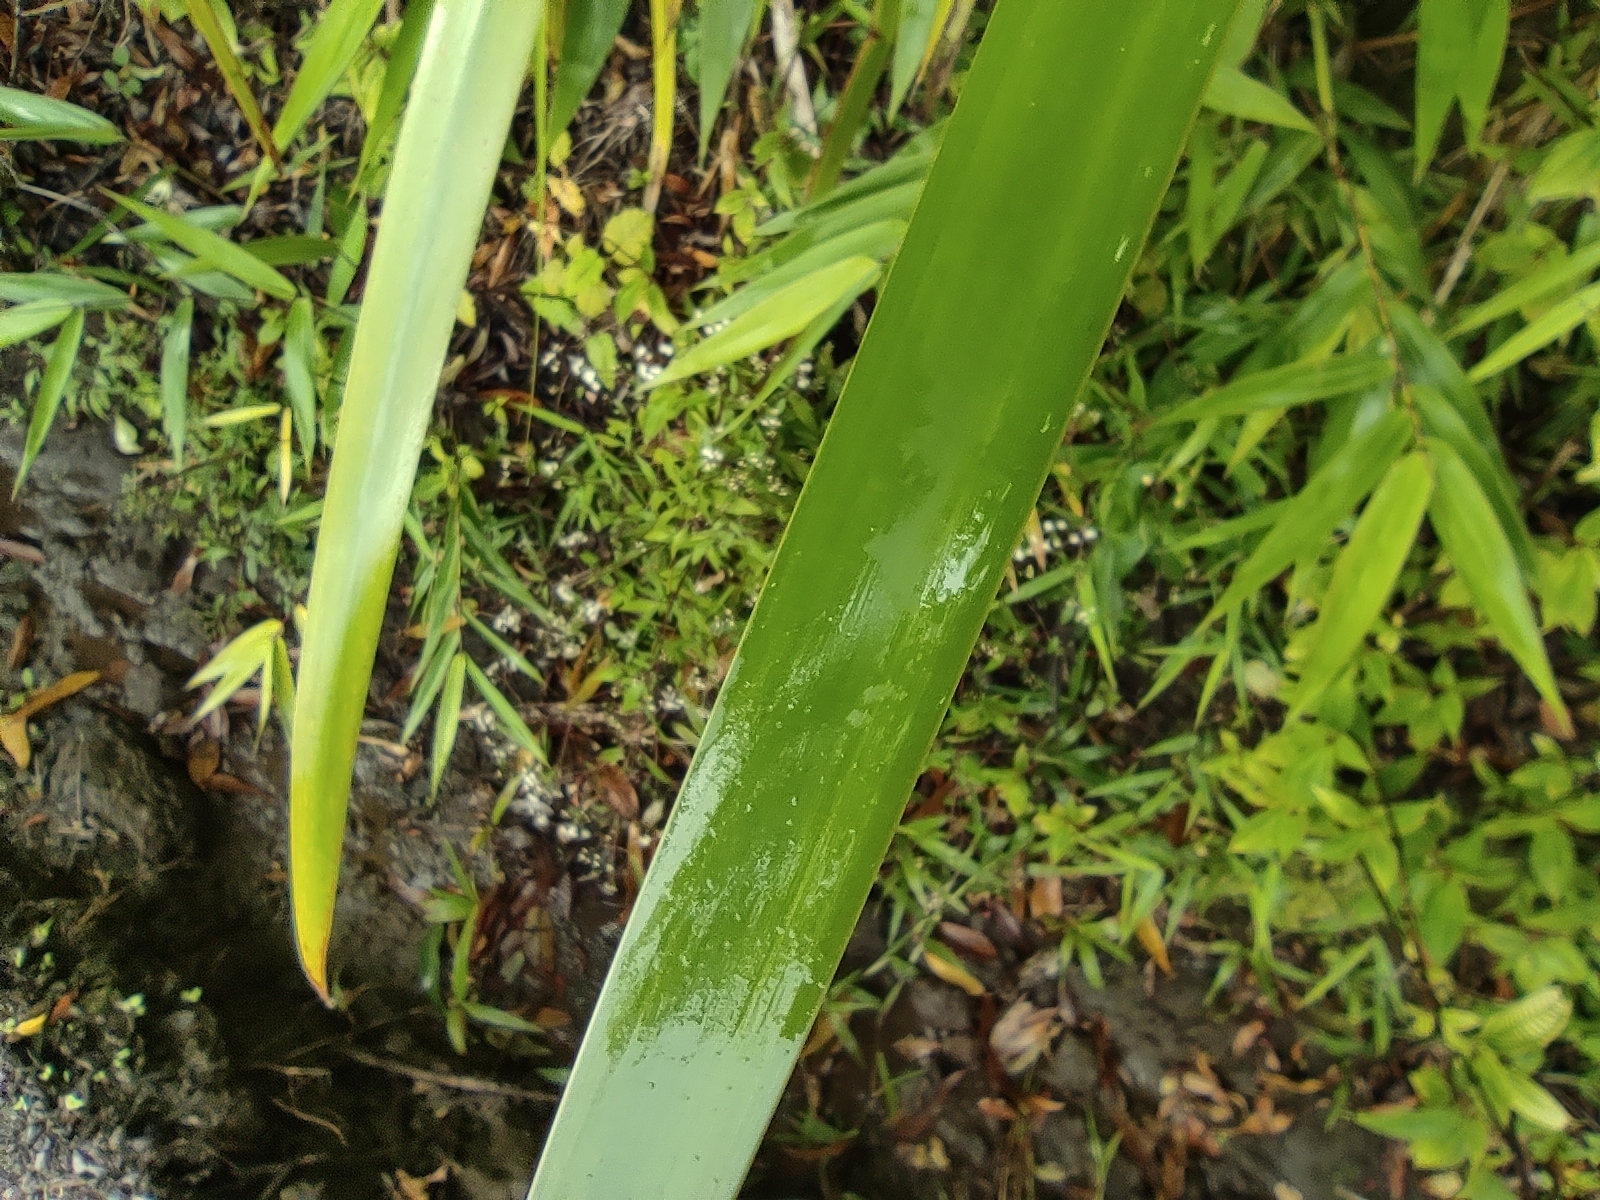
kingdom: Plantae
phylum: Tracheophyta
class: Liliopsida
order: Poales
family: Cyperaceae
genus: Machaerina
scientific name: Machaerina iridifolia
